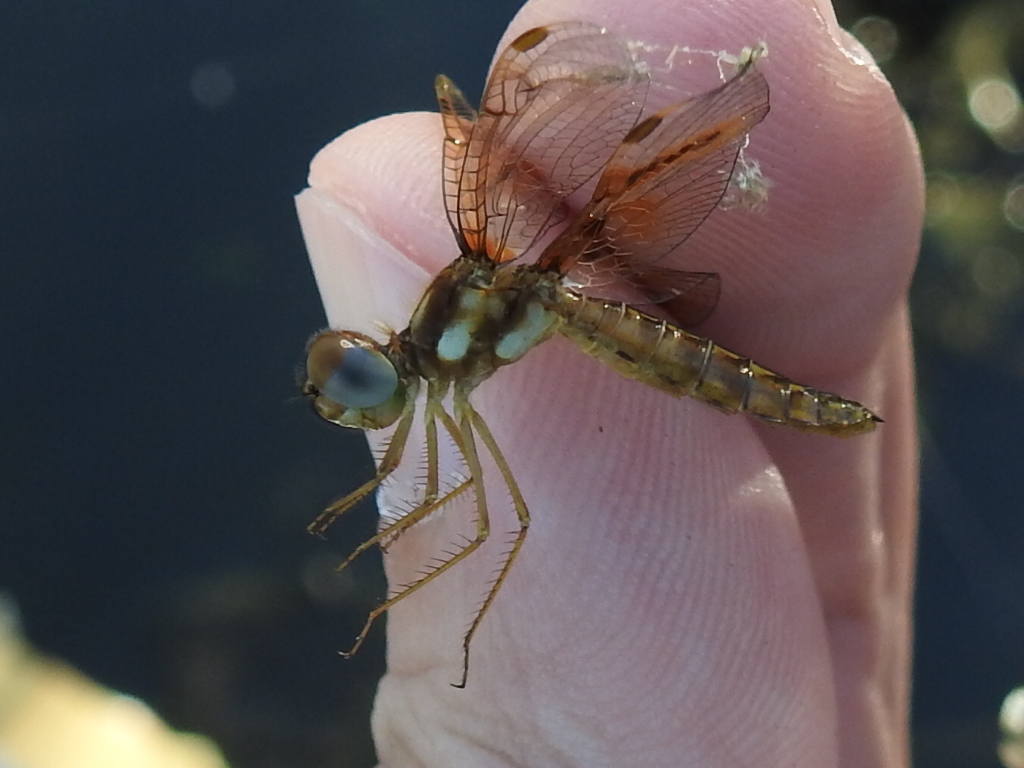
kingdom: Animalia
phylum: Arthropoda
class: Insecta
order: Odonata
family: Libellulidae
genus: Perithemis
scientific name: Perithemis tenera
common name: Eastern amberwing
